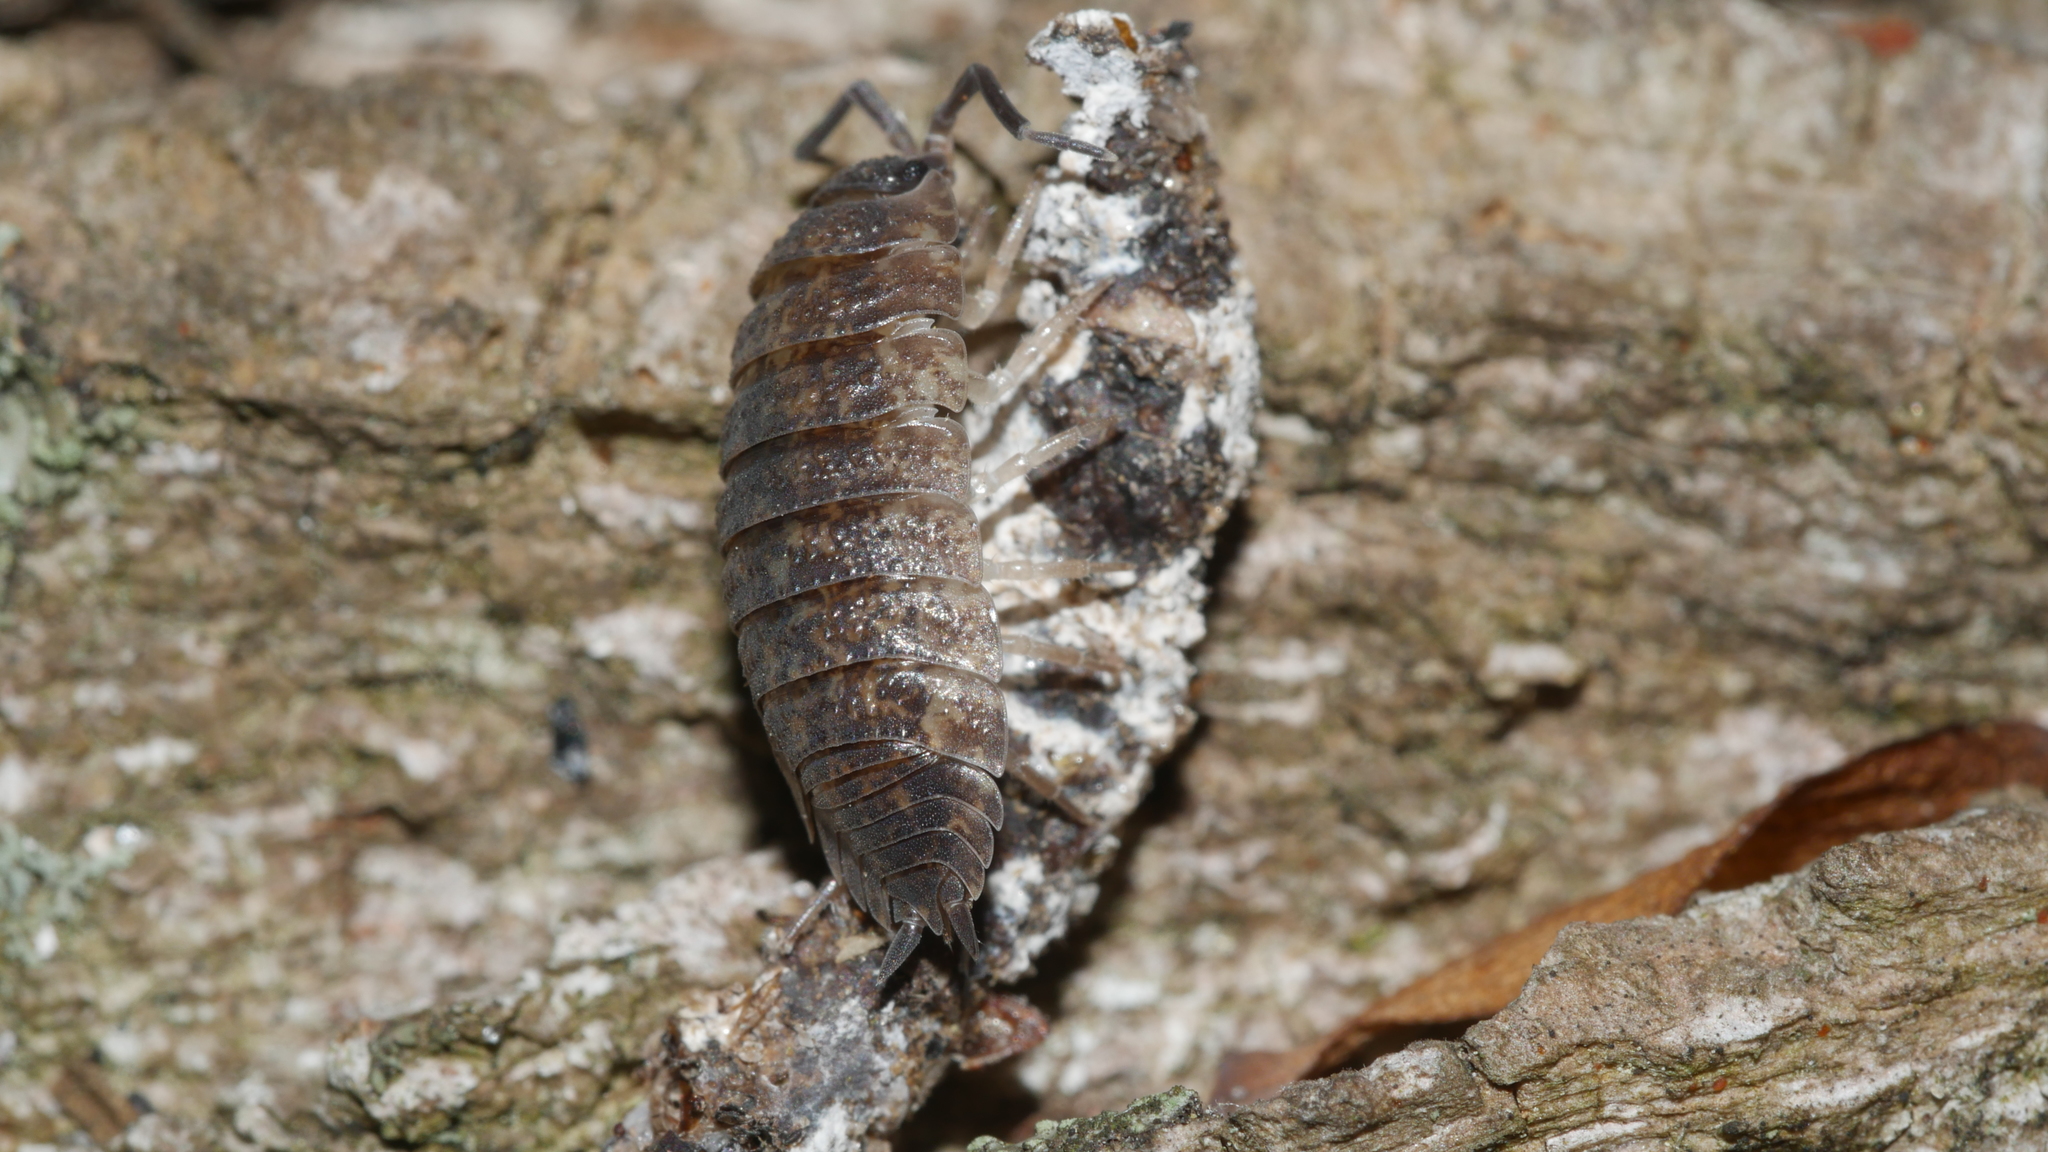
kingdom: Animalia
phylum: Arthropoda
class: Malacostraca
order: Isopoda
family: Porcellionidae
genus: Porcellio
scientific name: Porcellio scaber
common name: Common rough woodlouse
